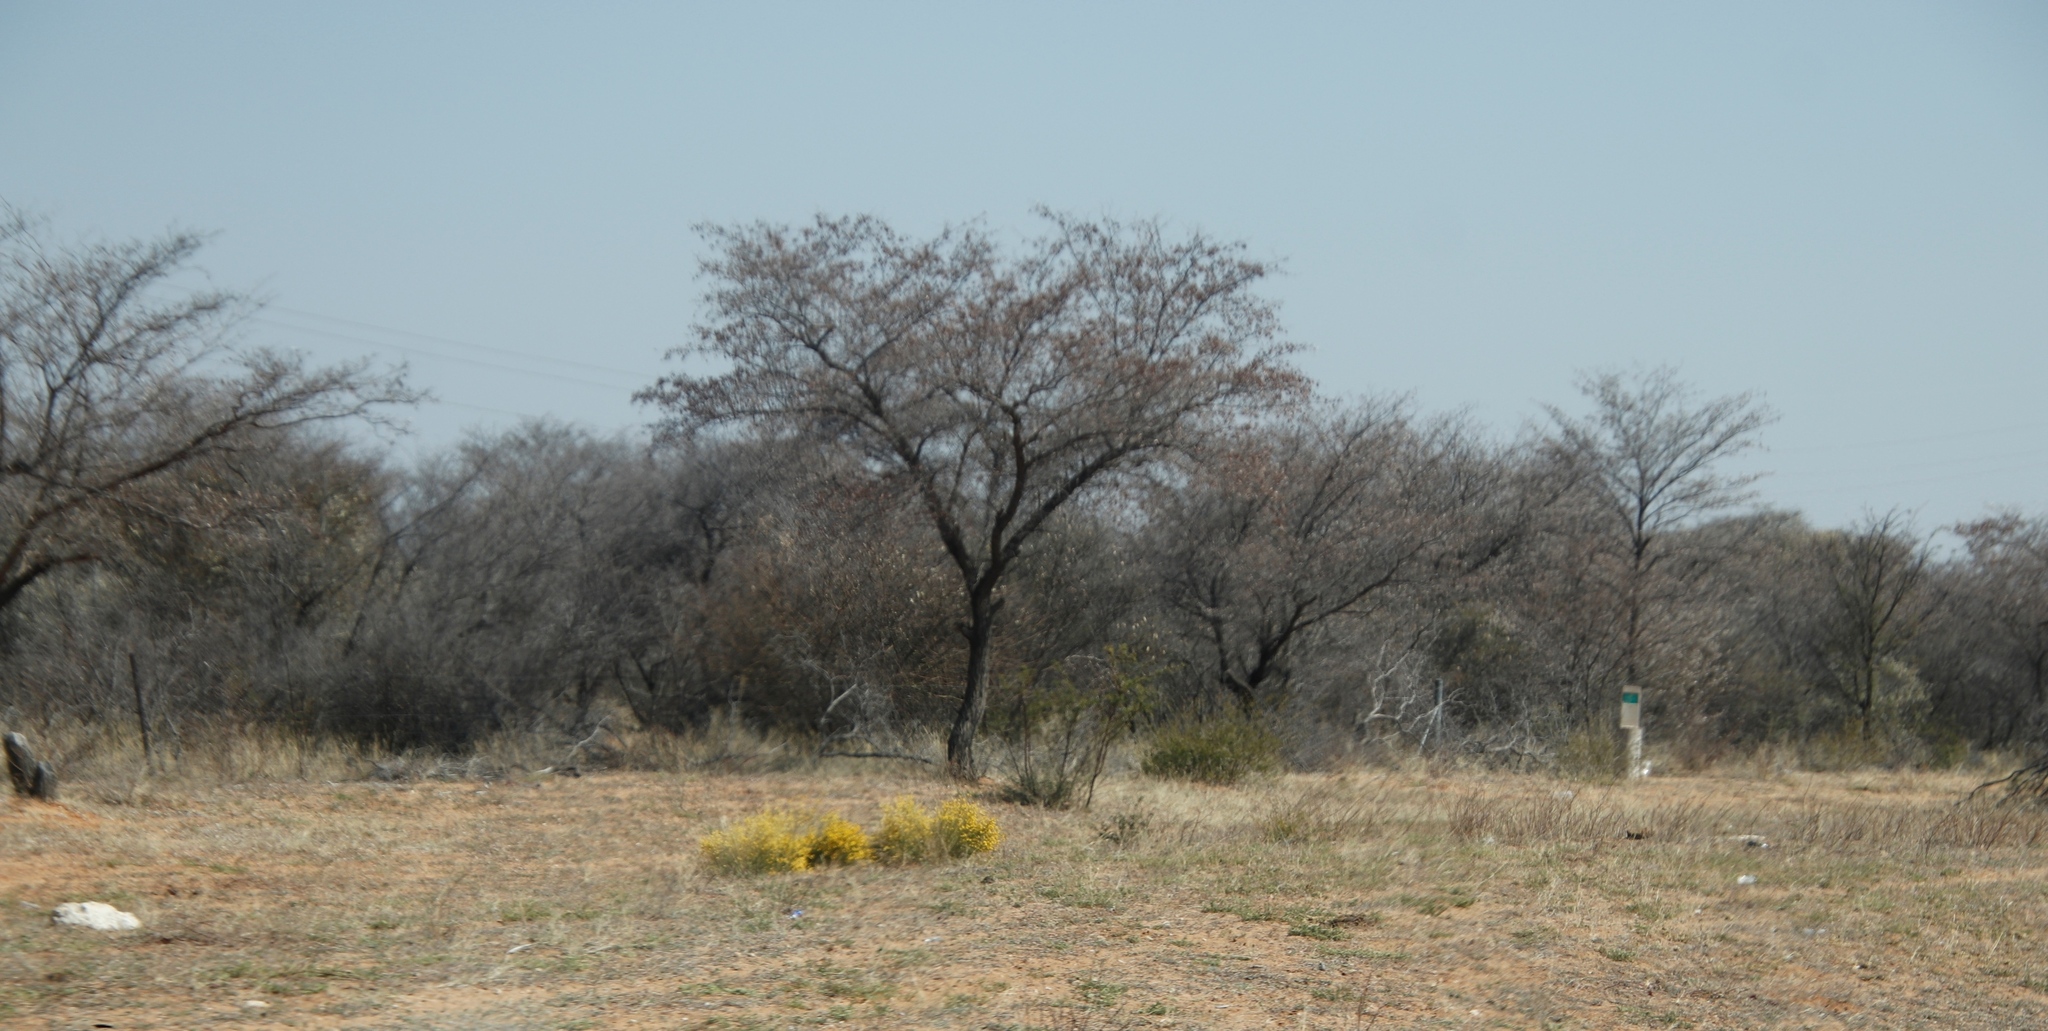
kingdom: Plantae
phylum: Tracheophyta
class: Magnoliopsida
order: Malvales
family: Thymelaeaceae
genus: Gnidia
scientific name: Gnidia polycephala
